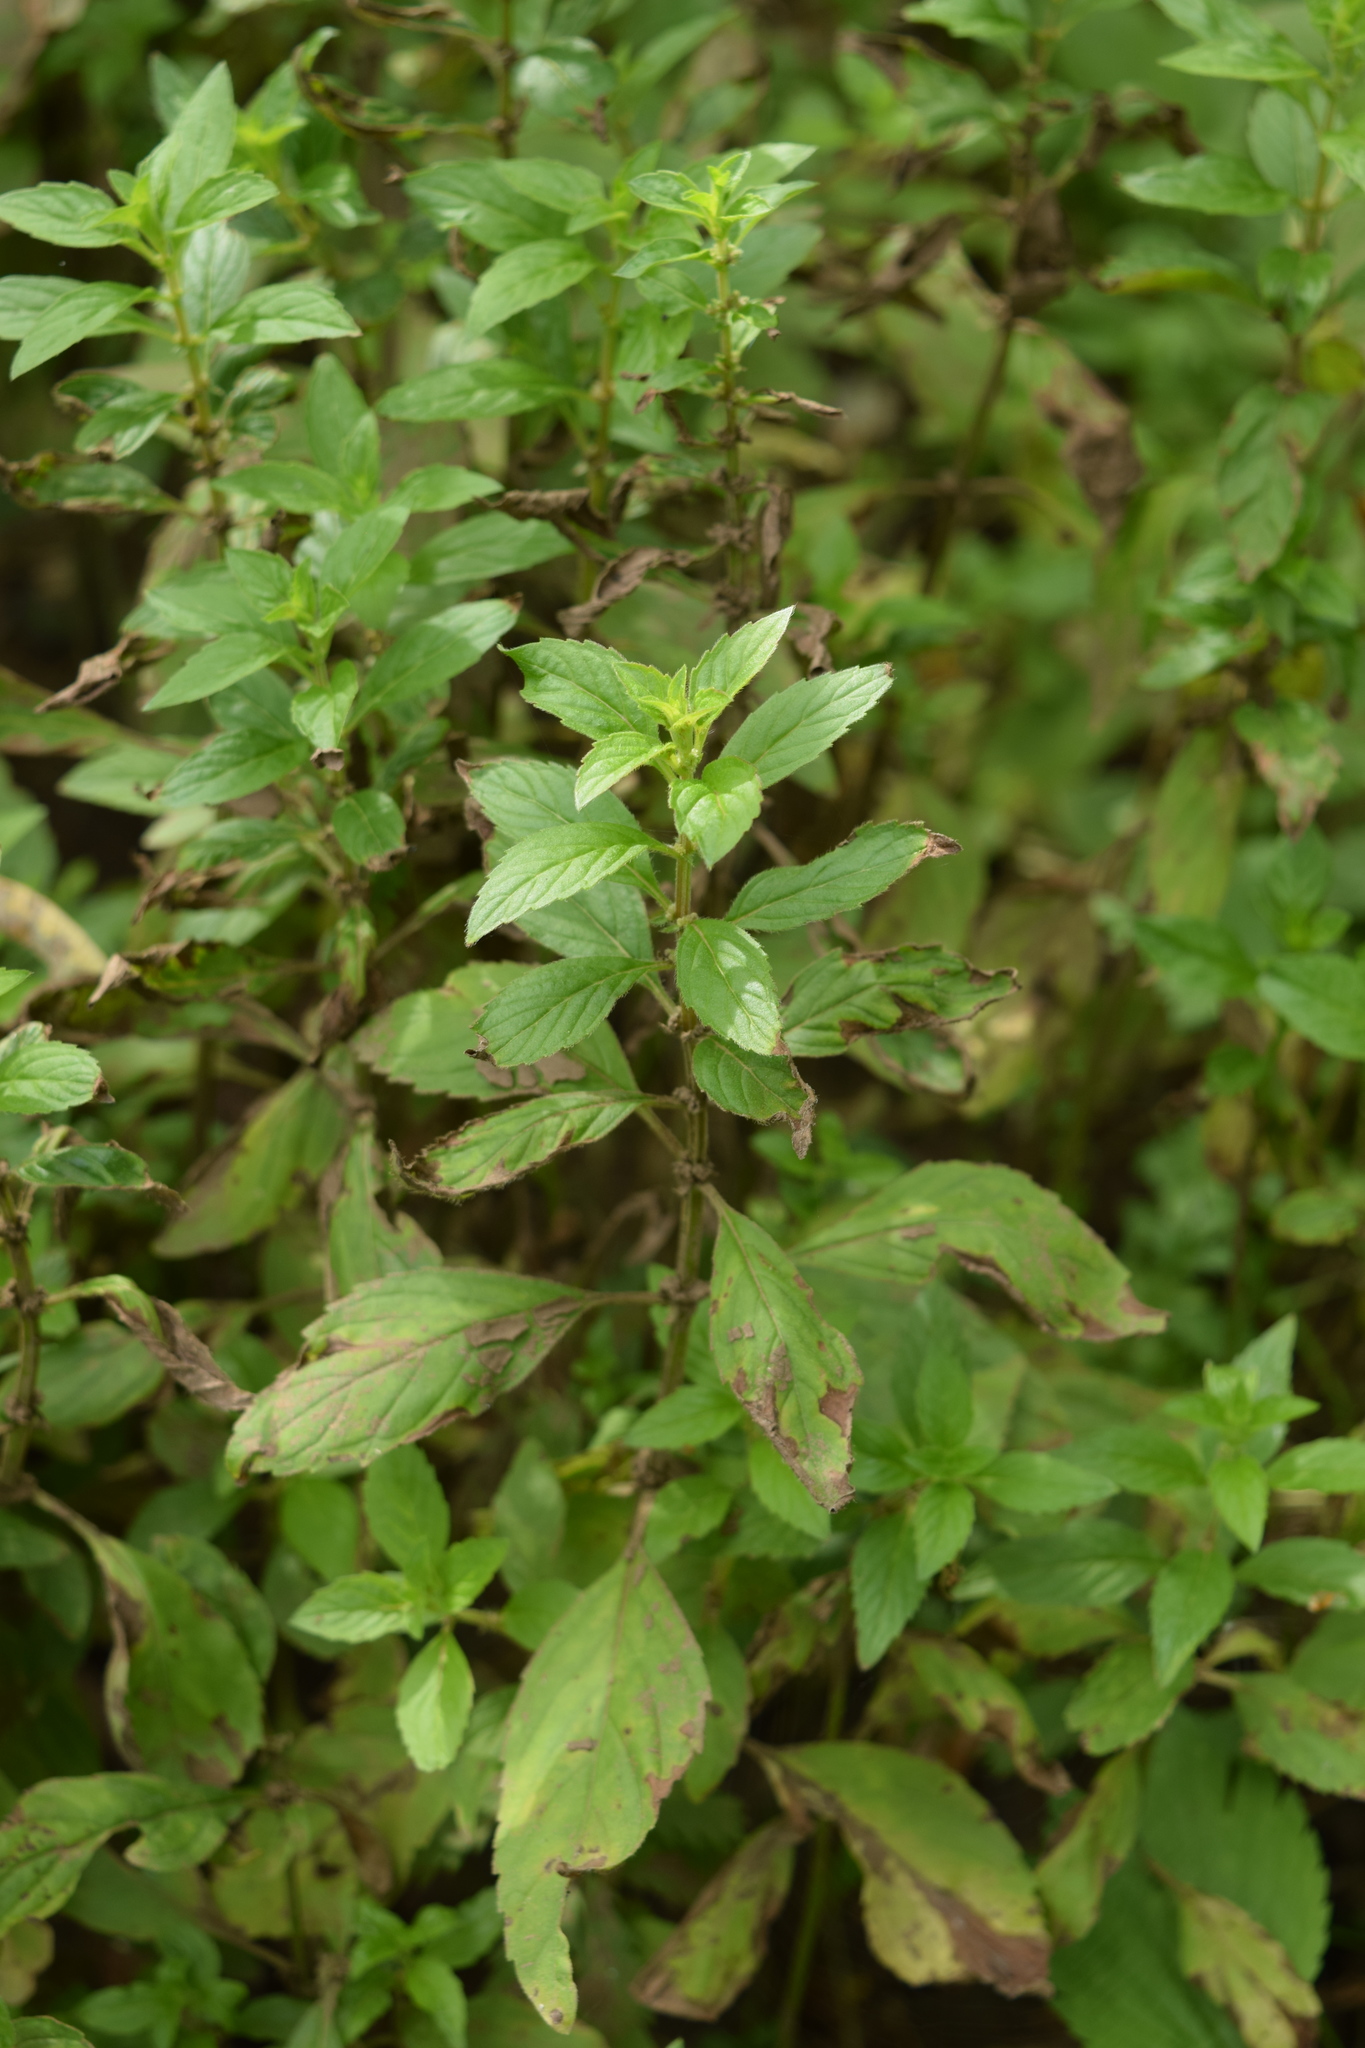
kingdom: Plantae
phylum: Tracheophyta
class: Magnoliopsida
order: Lamiales
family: Lamiaceae
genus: Mentha
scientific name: Mentha arvensis
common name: Corn mint
